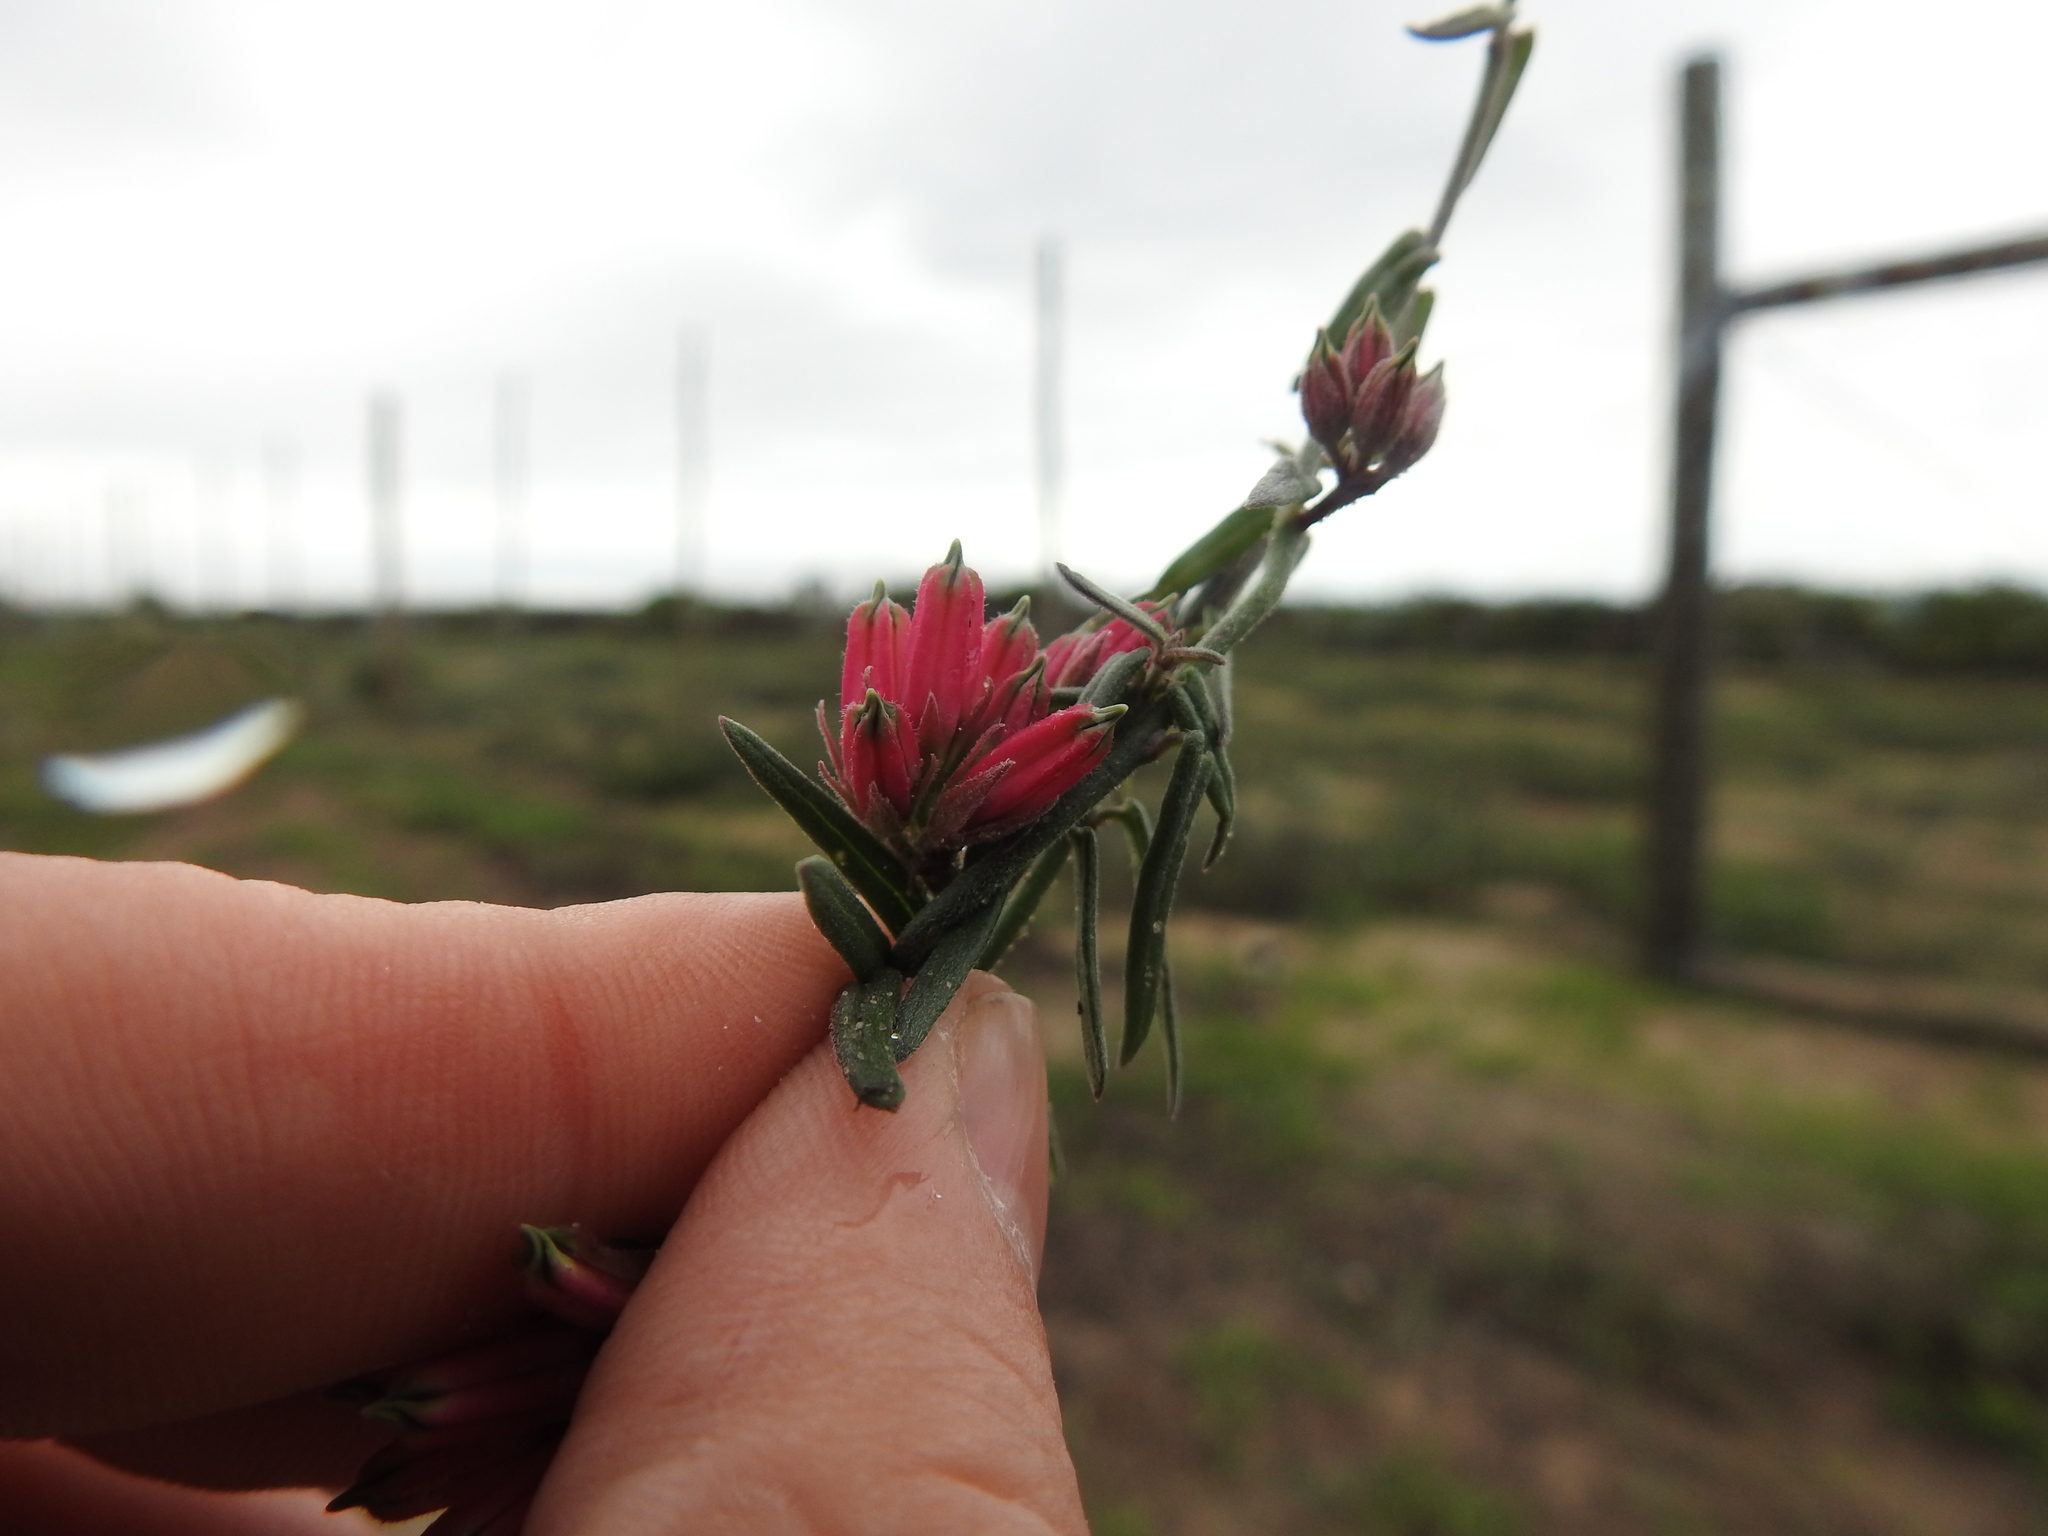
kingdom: Plantae
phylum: Tracheophyta
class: Magnoliopsida
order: Gentianales
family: Apocynaceae
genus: Microloma
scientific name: Microloma sagittatum
